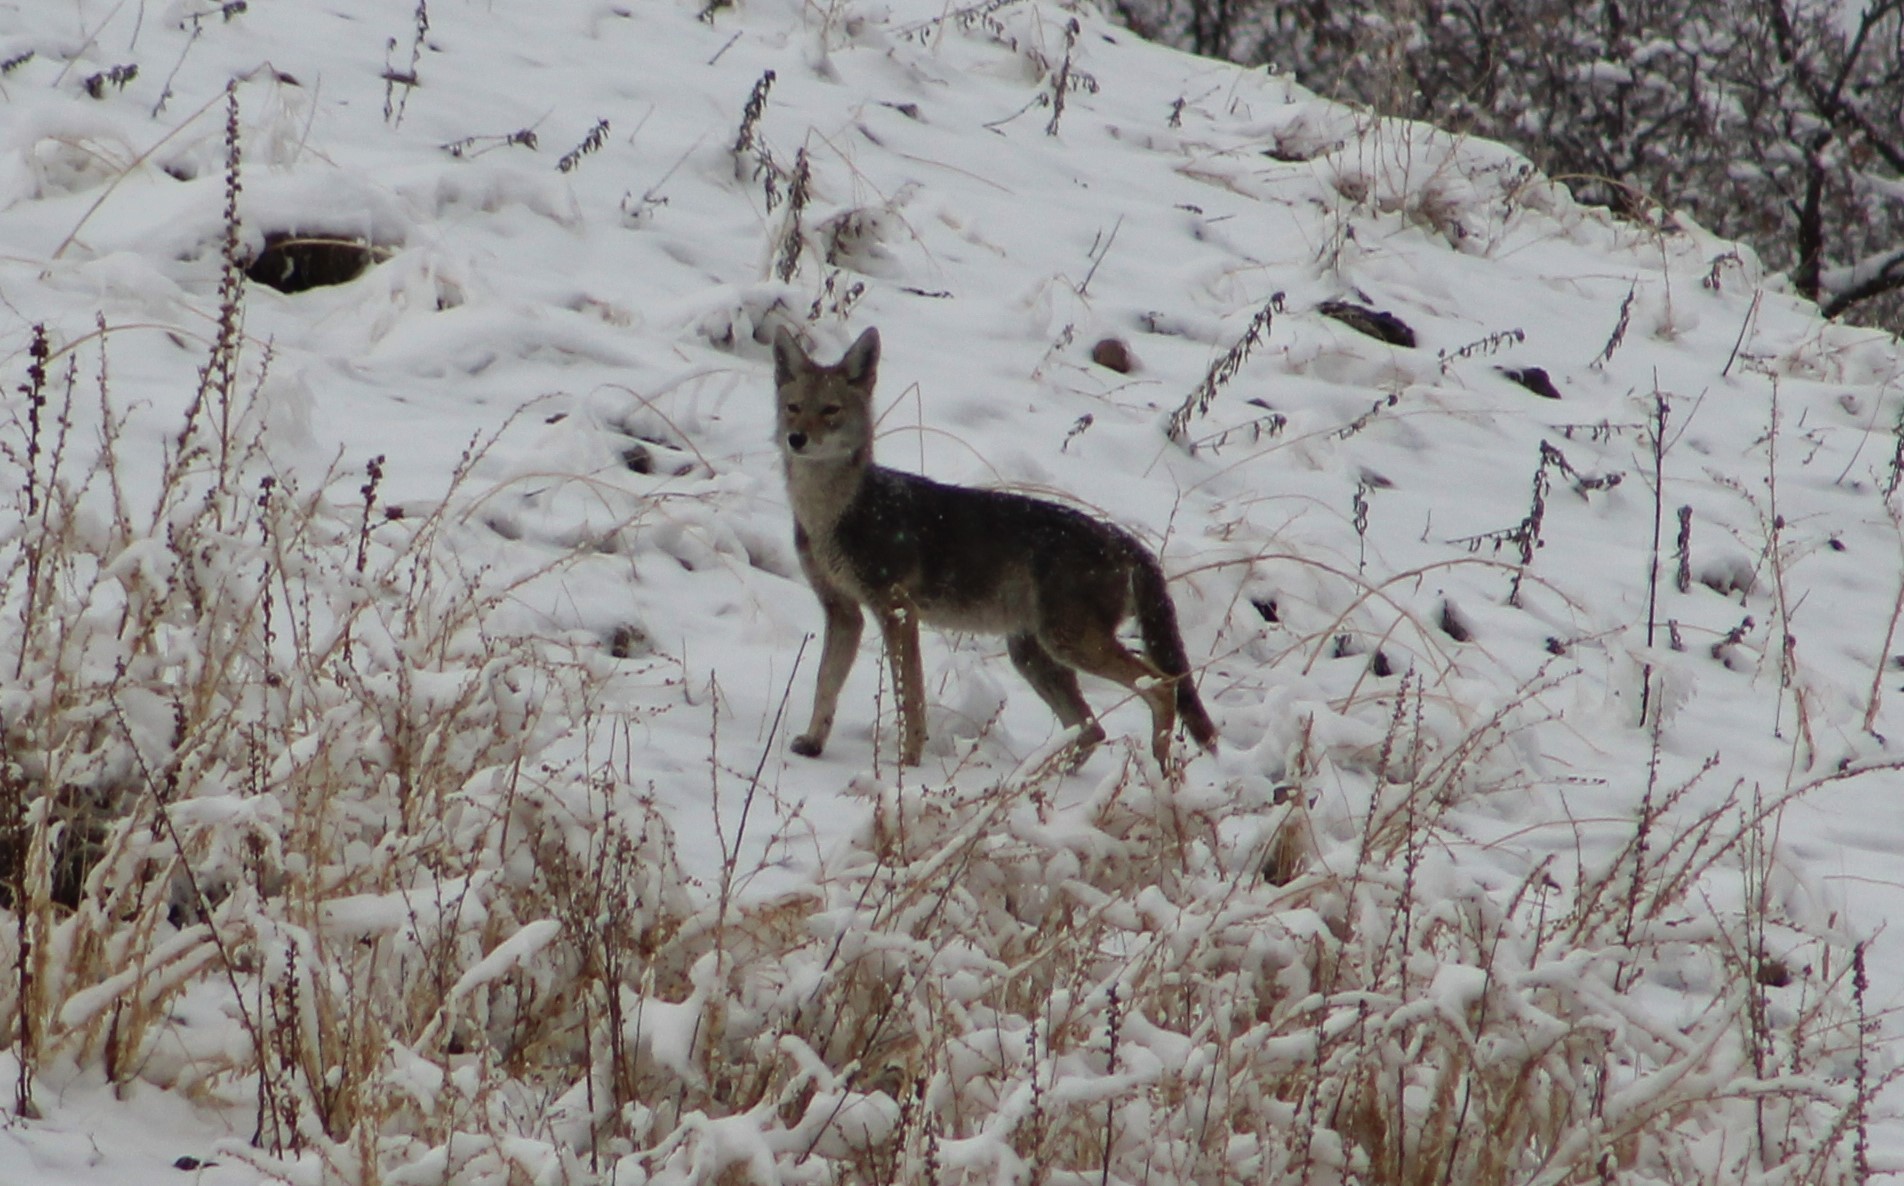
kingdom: Animalia
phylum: Chordata
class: Mammalia
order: Carnivora
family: Canidae
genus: Canis
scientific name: Canis latrans
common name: Coyote
